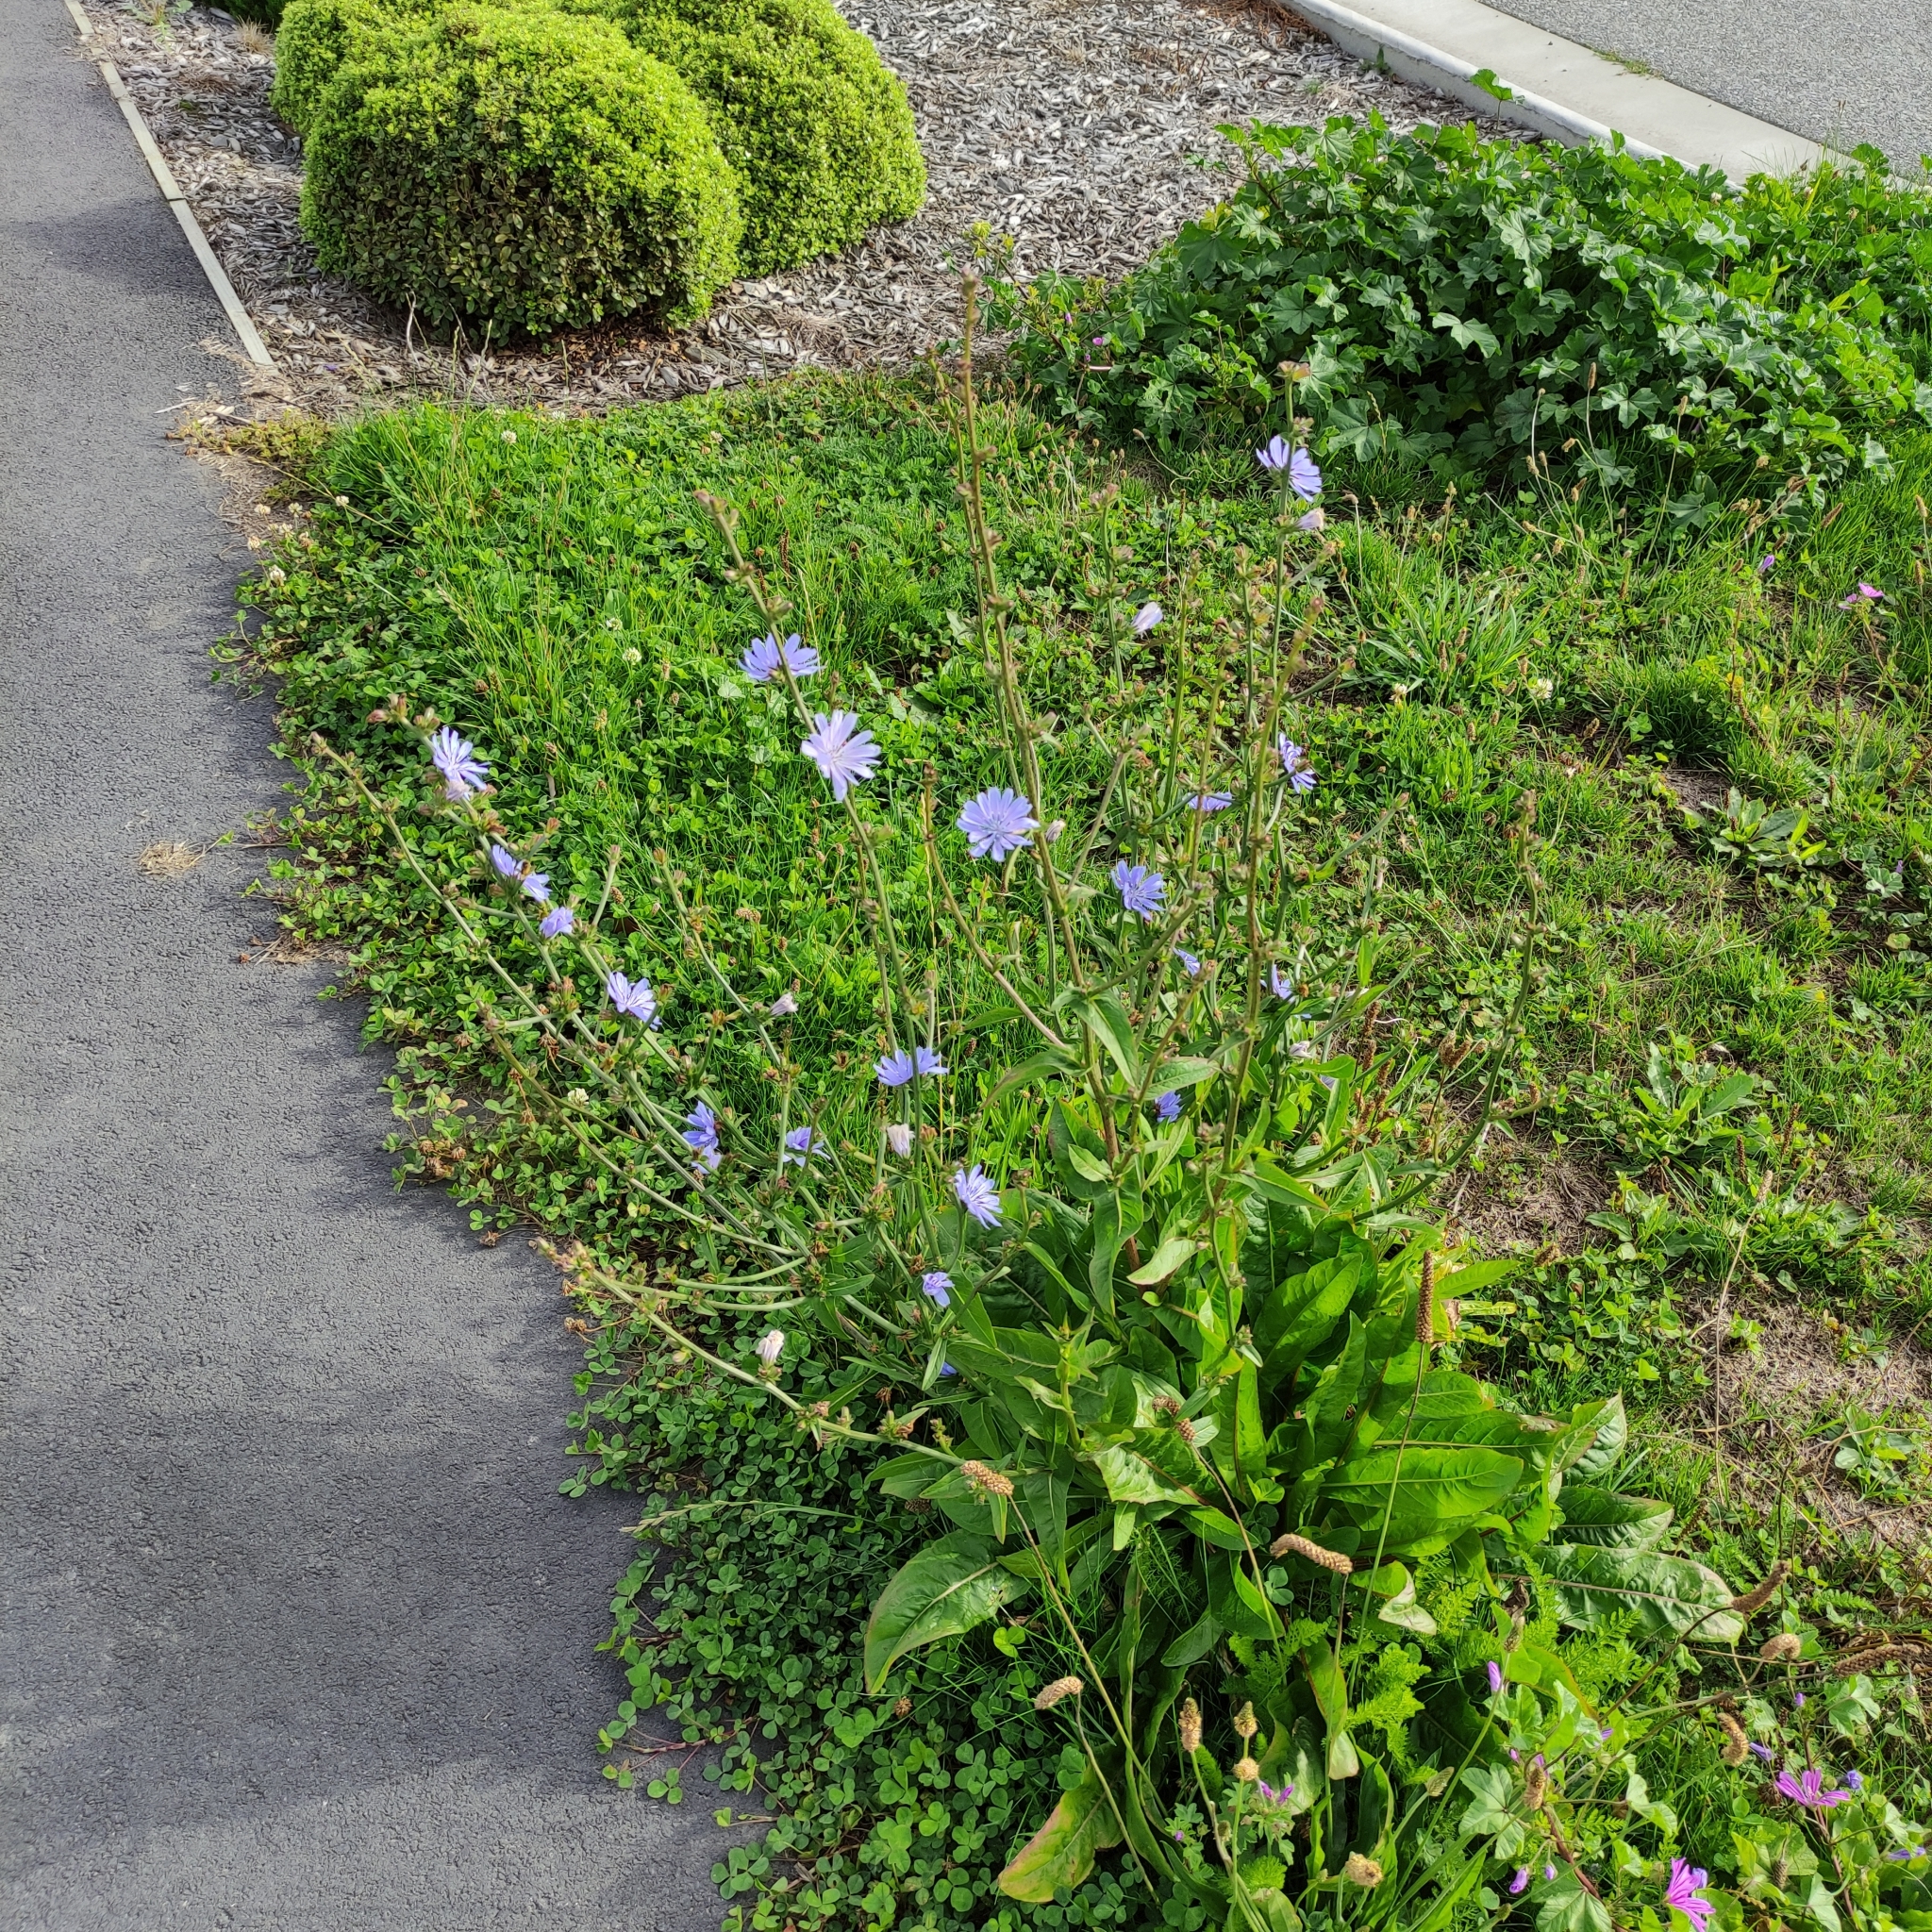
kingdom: Plantae
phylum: Tracheophyta
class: Magnoliopsida
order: Asterales
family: Asteraceae
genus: Cichorium
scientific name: Cichorium intybus
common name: Chicory
